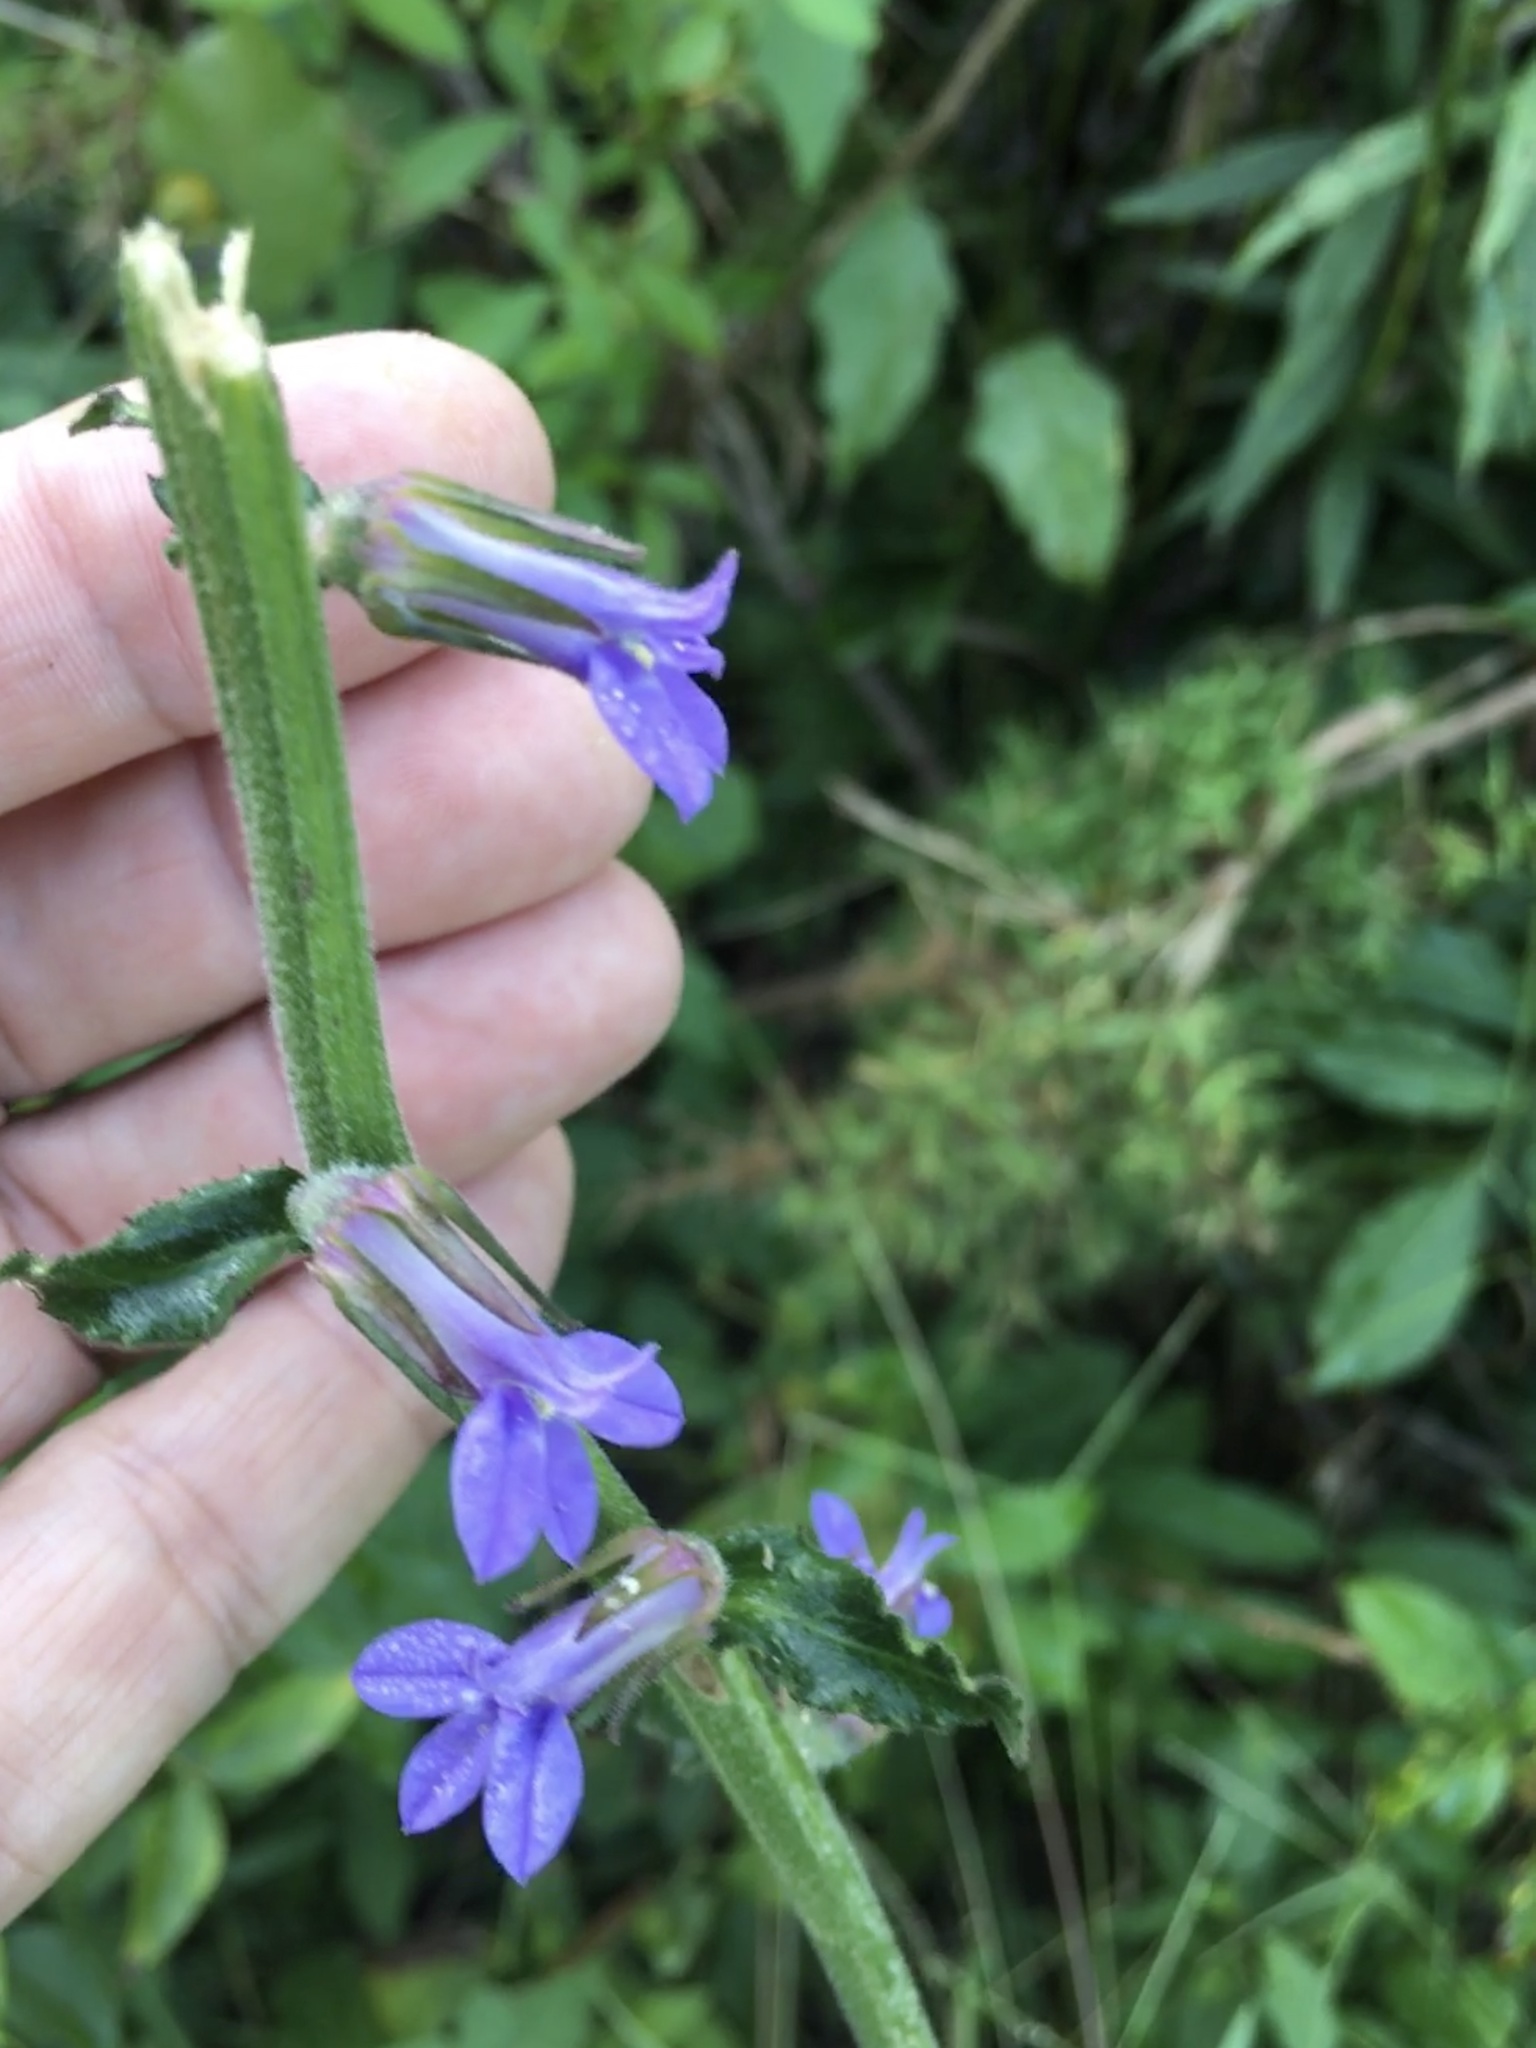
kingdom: Plantae
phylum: Tracheophyta
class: Magnoliopsida
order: Asterales
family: Campanulaceae
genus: Lobelia
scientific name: Lobelia puberula
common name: Purple dewdrop
